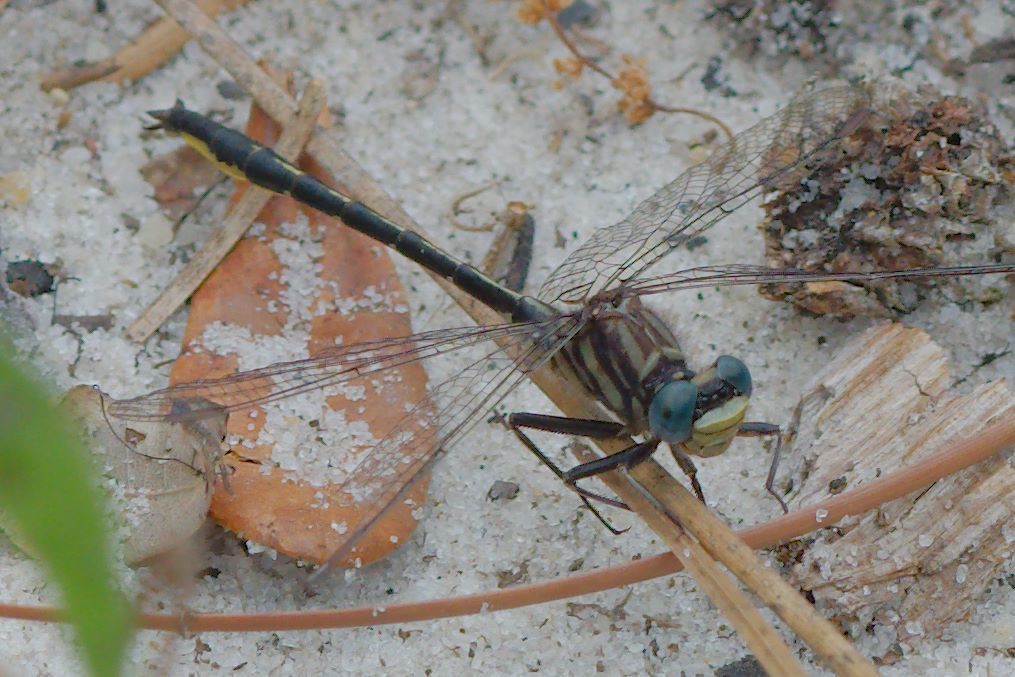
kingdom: Animalia
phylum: Arthropoda
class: Insecta
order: Odonata
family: Gomphidae
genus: Phanogomphus
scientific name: Phanogomphus westfalli
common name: Westfall’s clubtail
